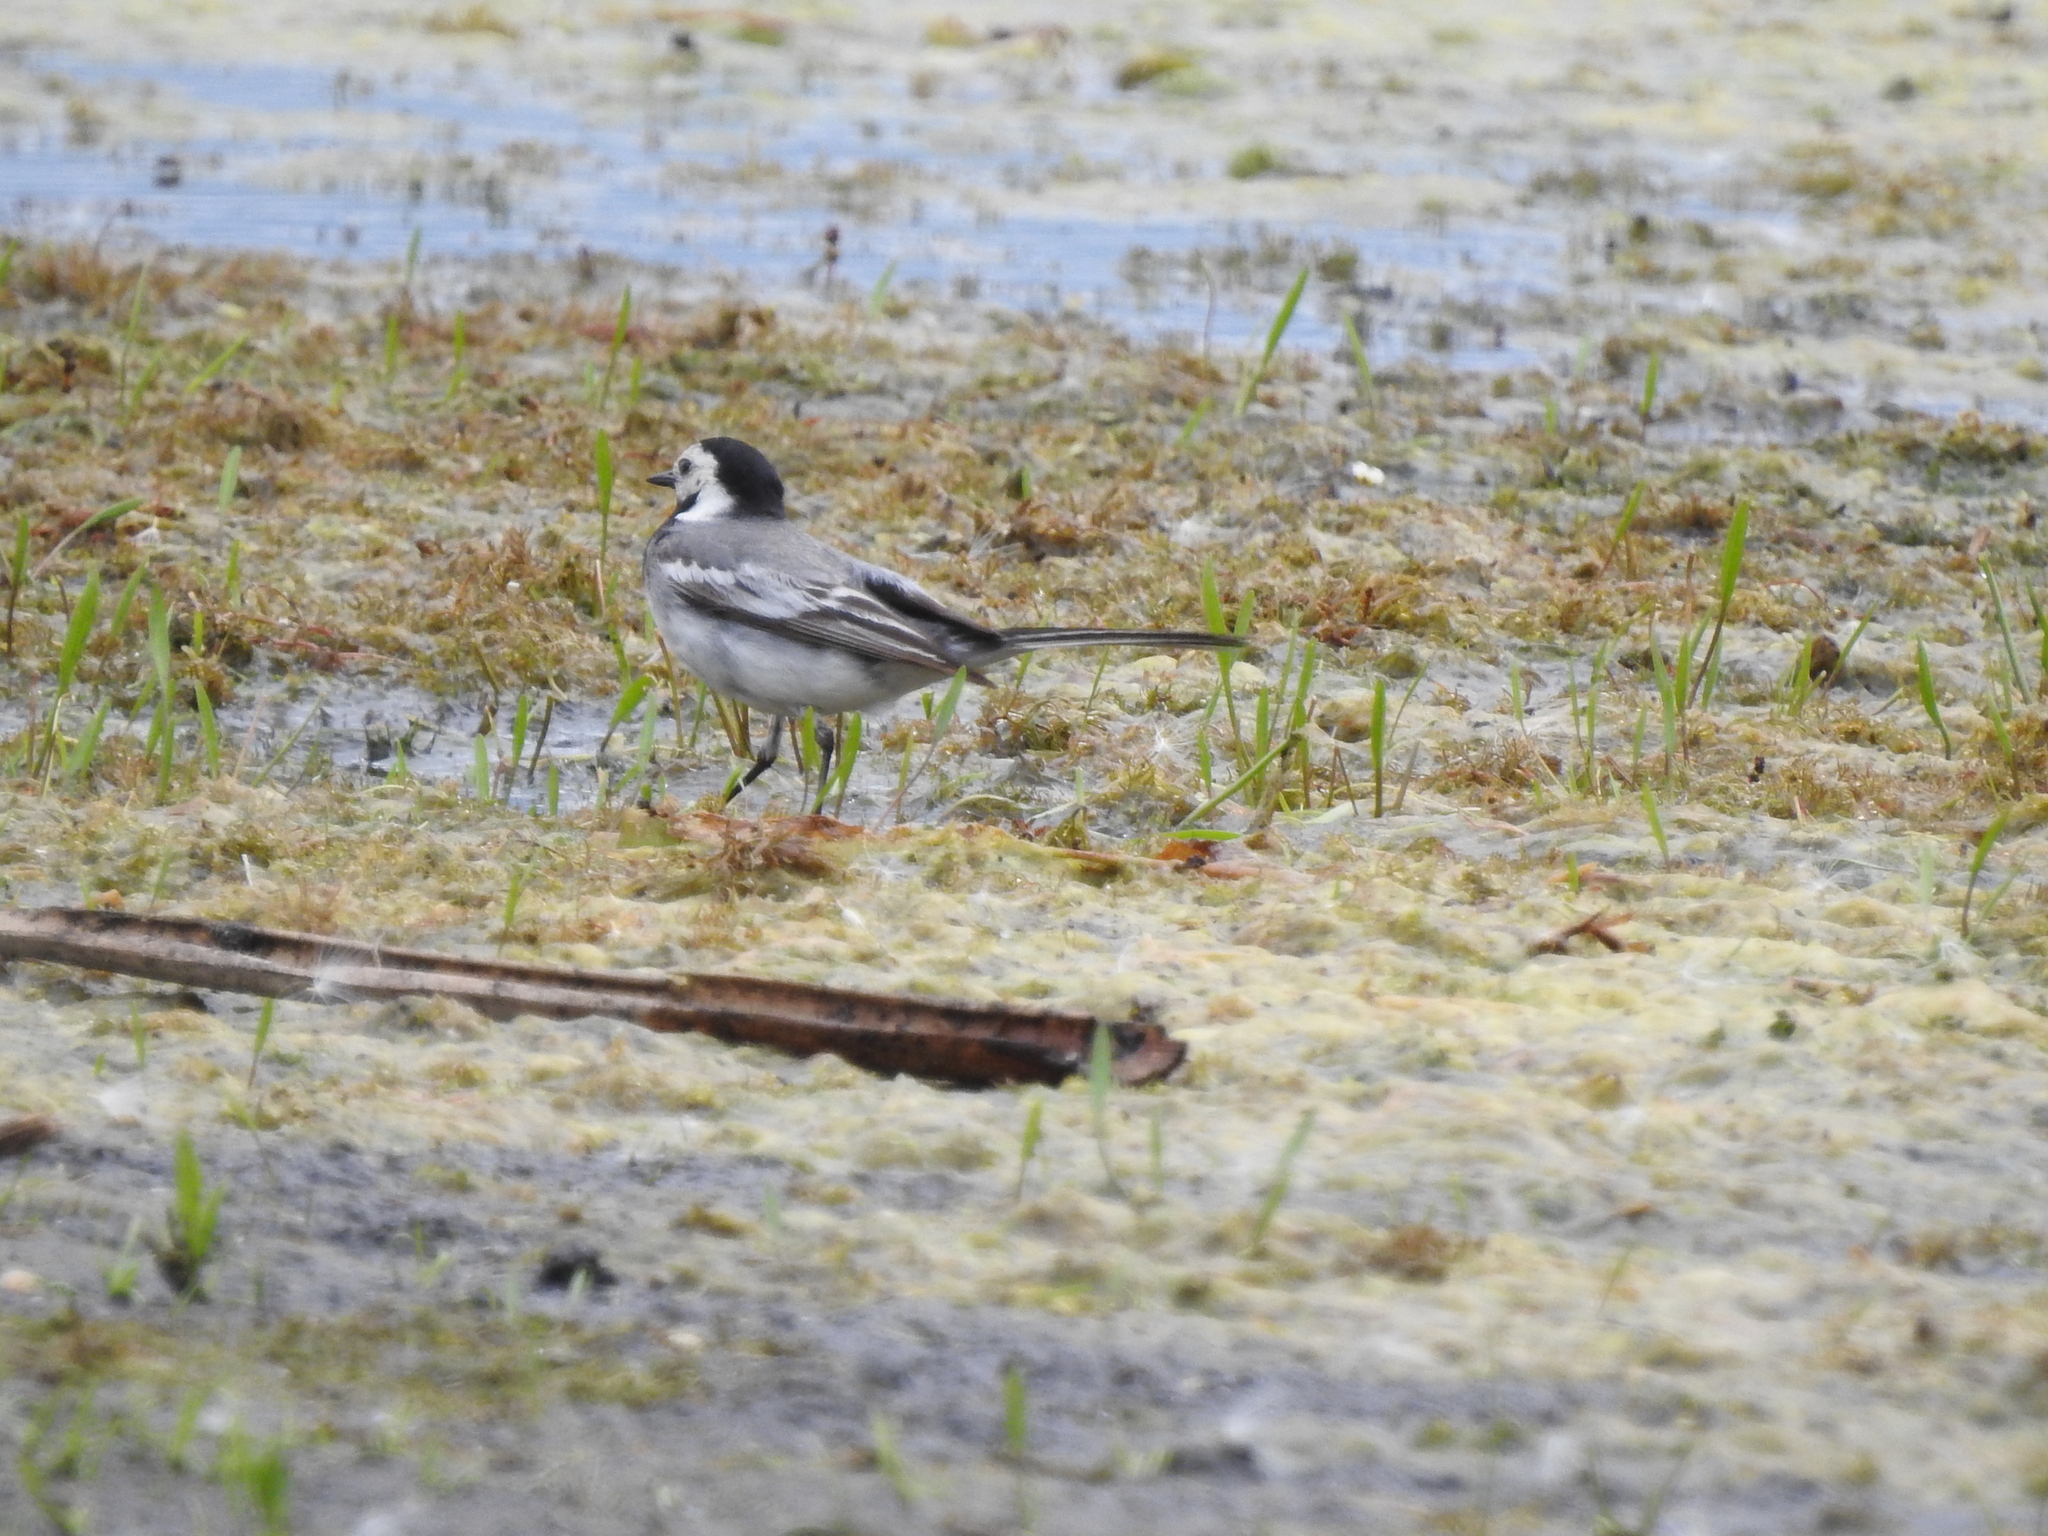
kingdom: Animalia
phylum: Chordata
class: Aves
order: Passeriformes
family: Motacillidae
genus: Motacilla
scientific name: Motacilla alba
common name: White wagtail
